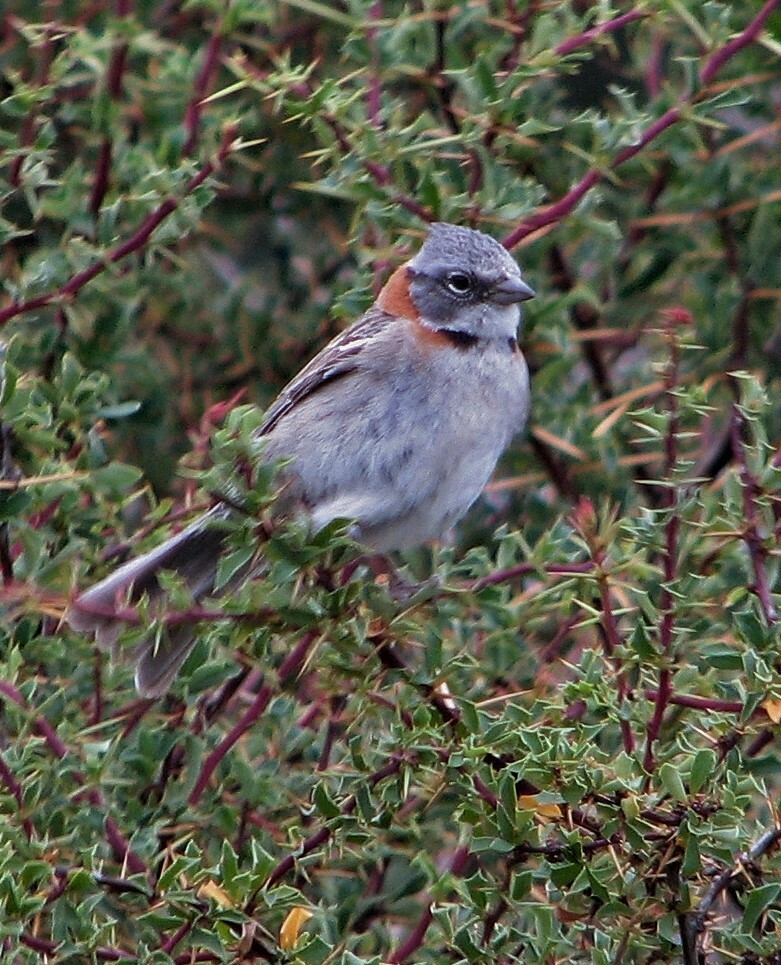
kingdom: Animalia
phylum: Chordata
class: Aves
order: Passeriformes
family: Passerellidae
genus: Zonotrichia
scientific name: Zonotrichia capensis
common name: Rufous-collared sparrow
